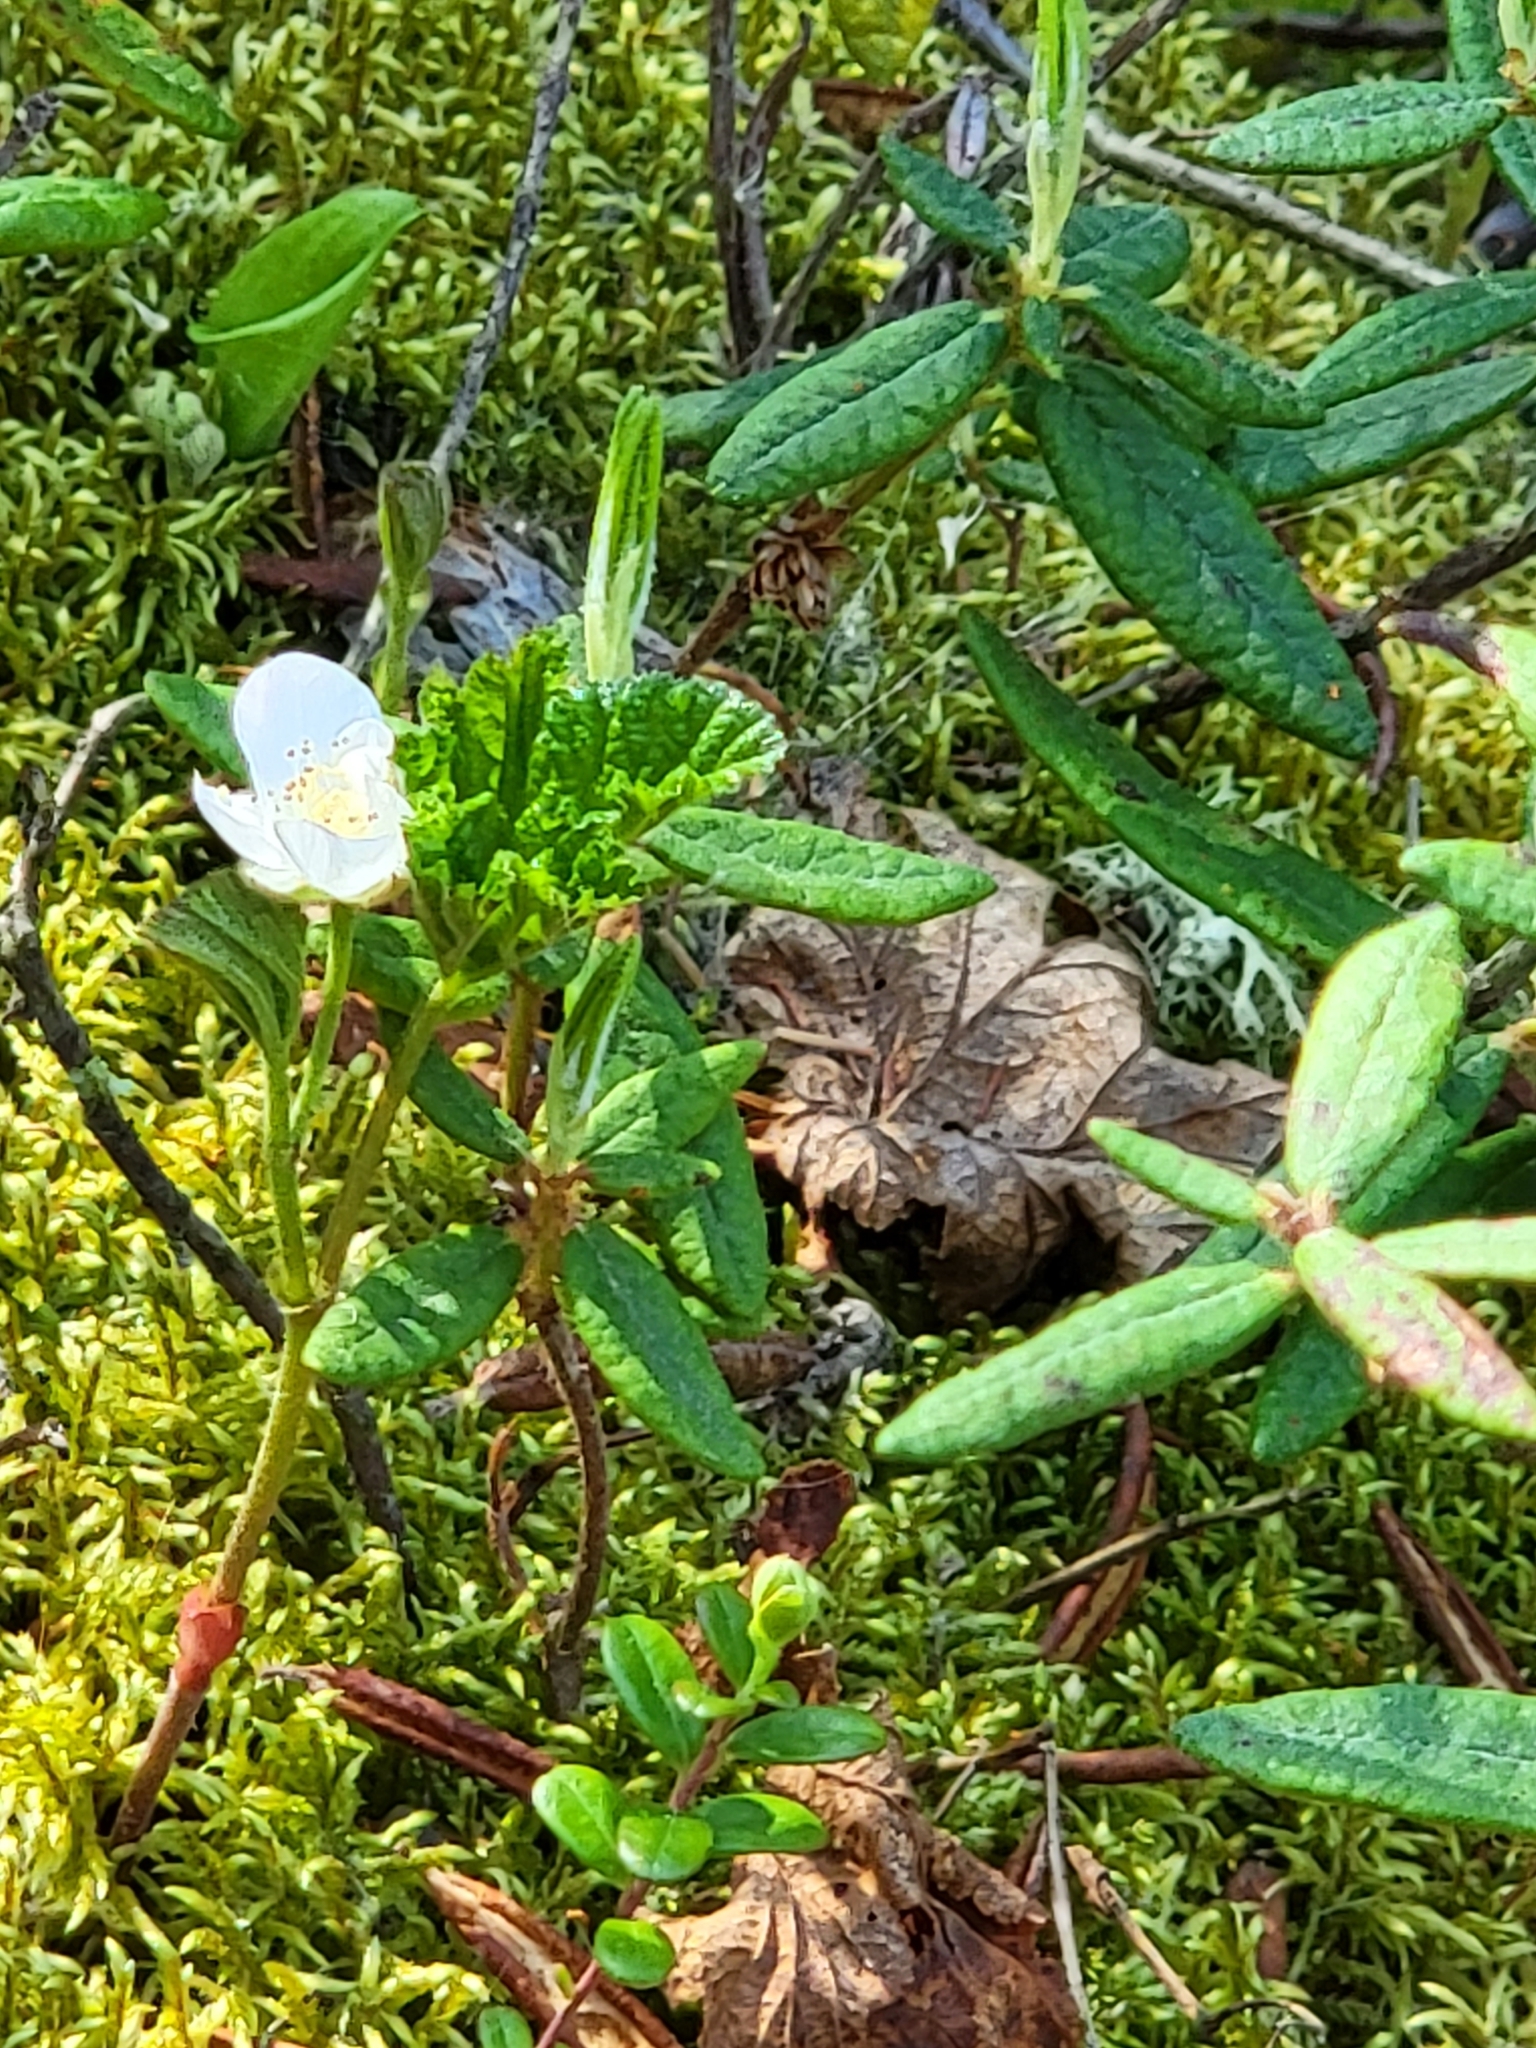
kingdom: Plantae
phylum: Tracheophyta
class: Magnoliopsida
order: Rosales
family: Rosaceae
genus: Rubus
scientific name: Rubus chamaemorus
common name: Cloudberry
